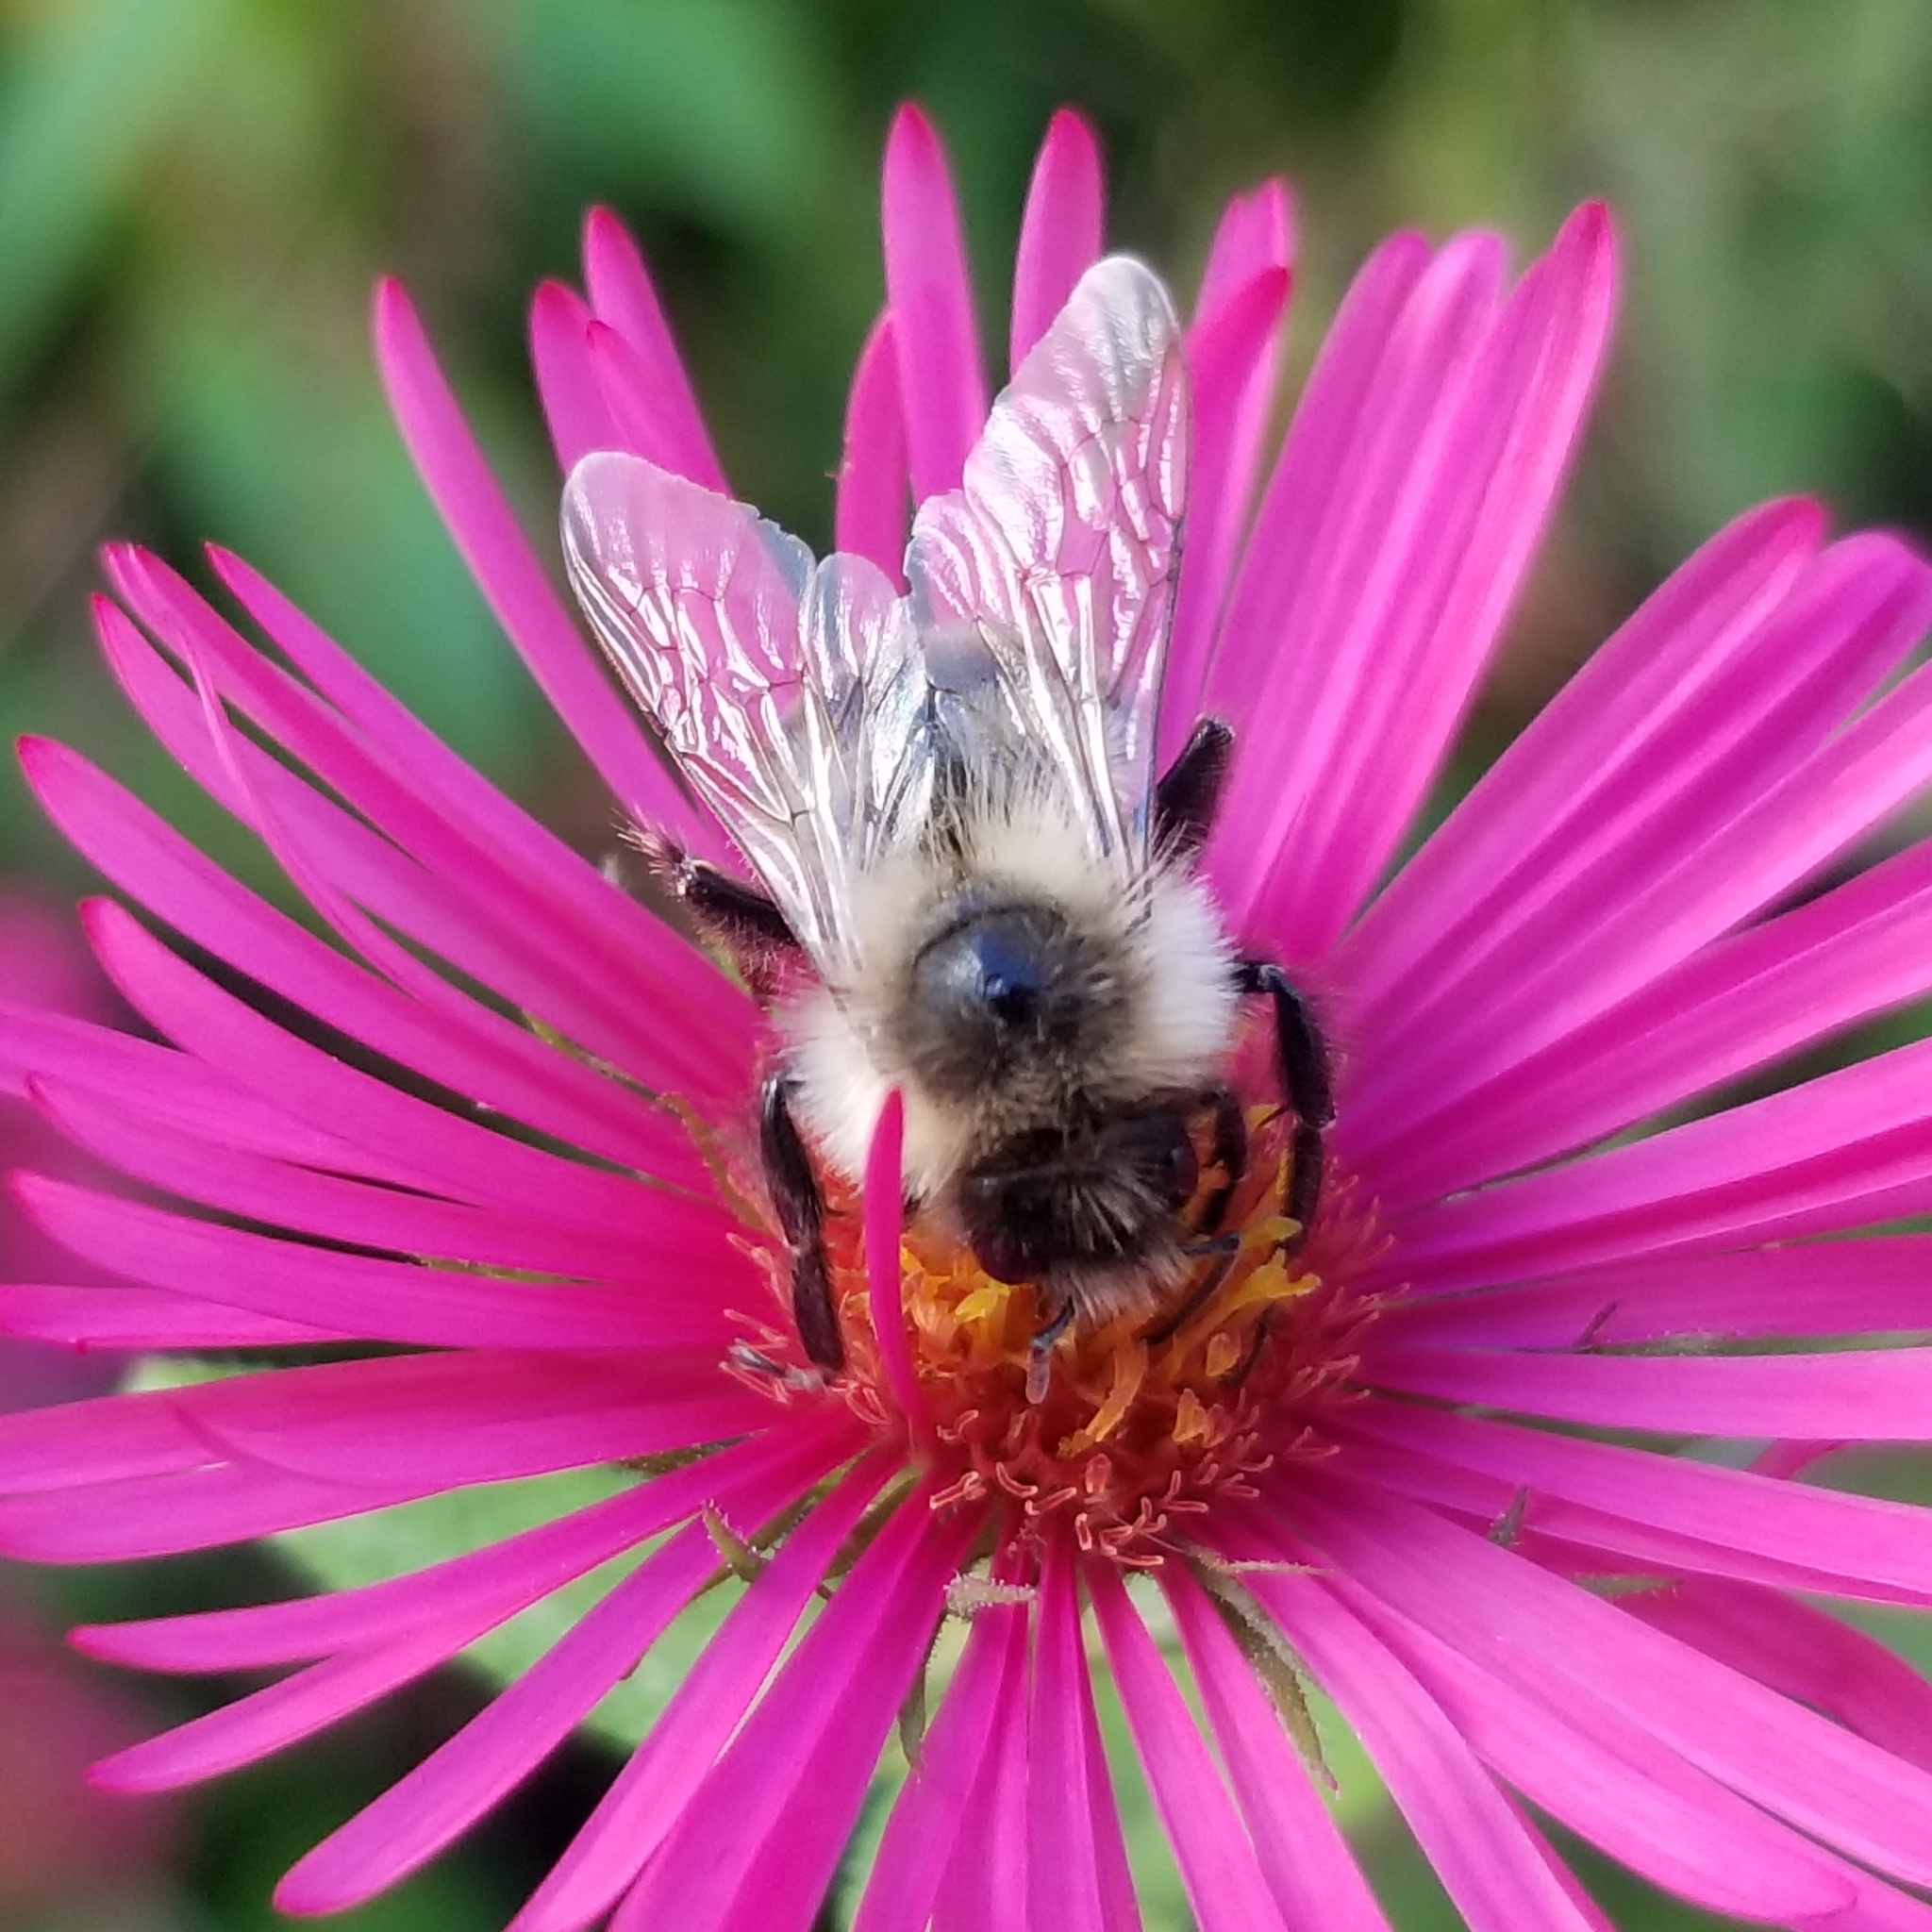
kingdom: Animalia
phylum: Arthropoda
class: Insecta
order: Hymenoptera
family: Apidae
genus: Bombus
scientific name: Bombus impatiens
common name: Common eastern bumble bee
